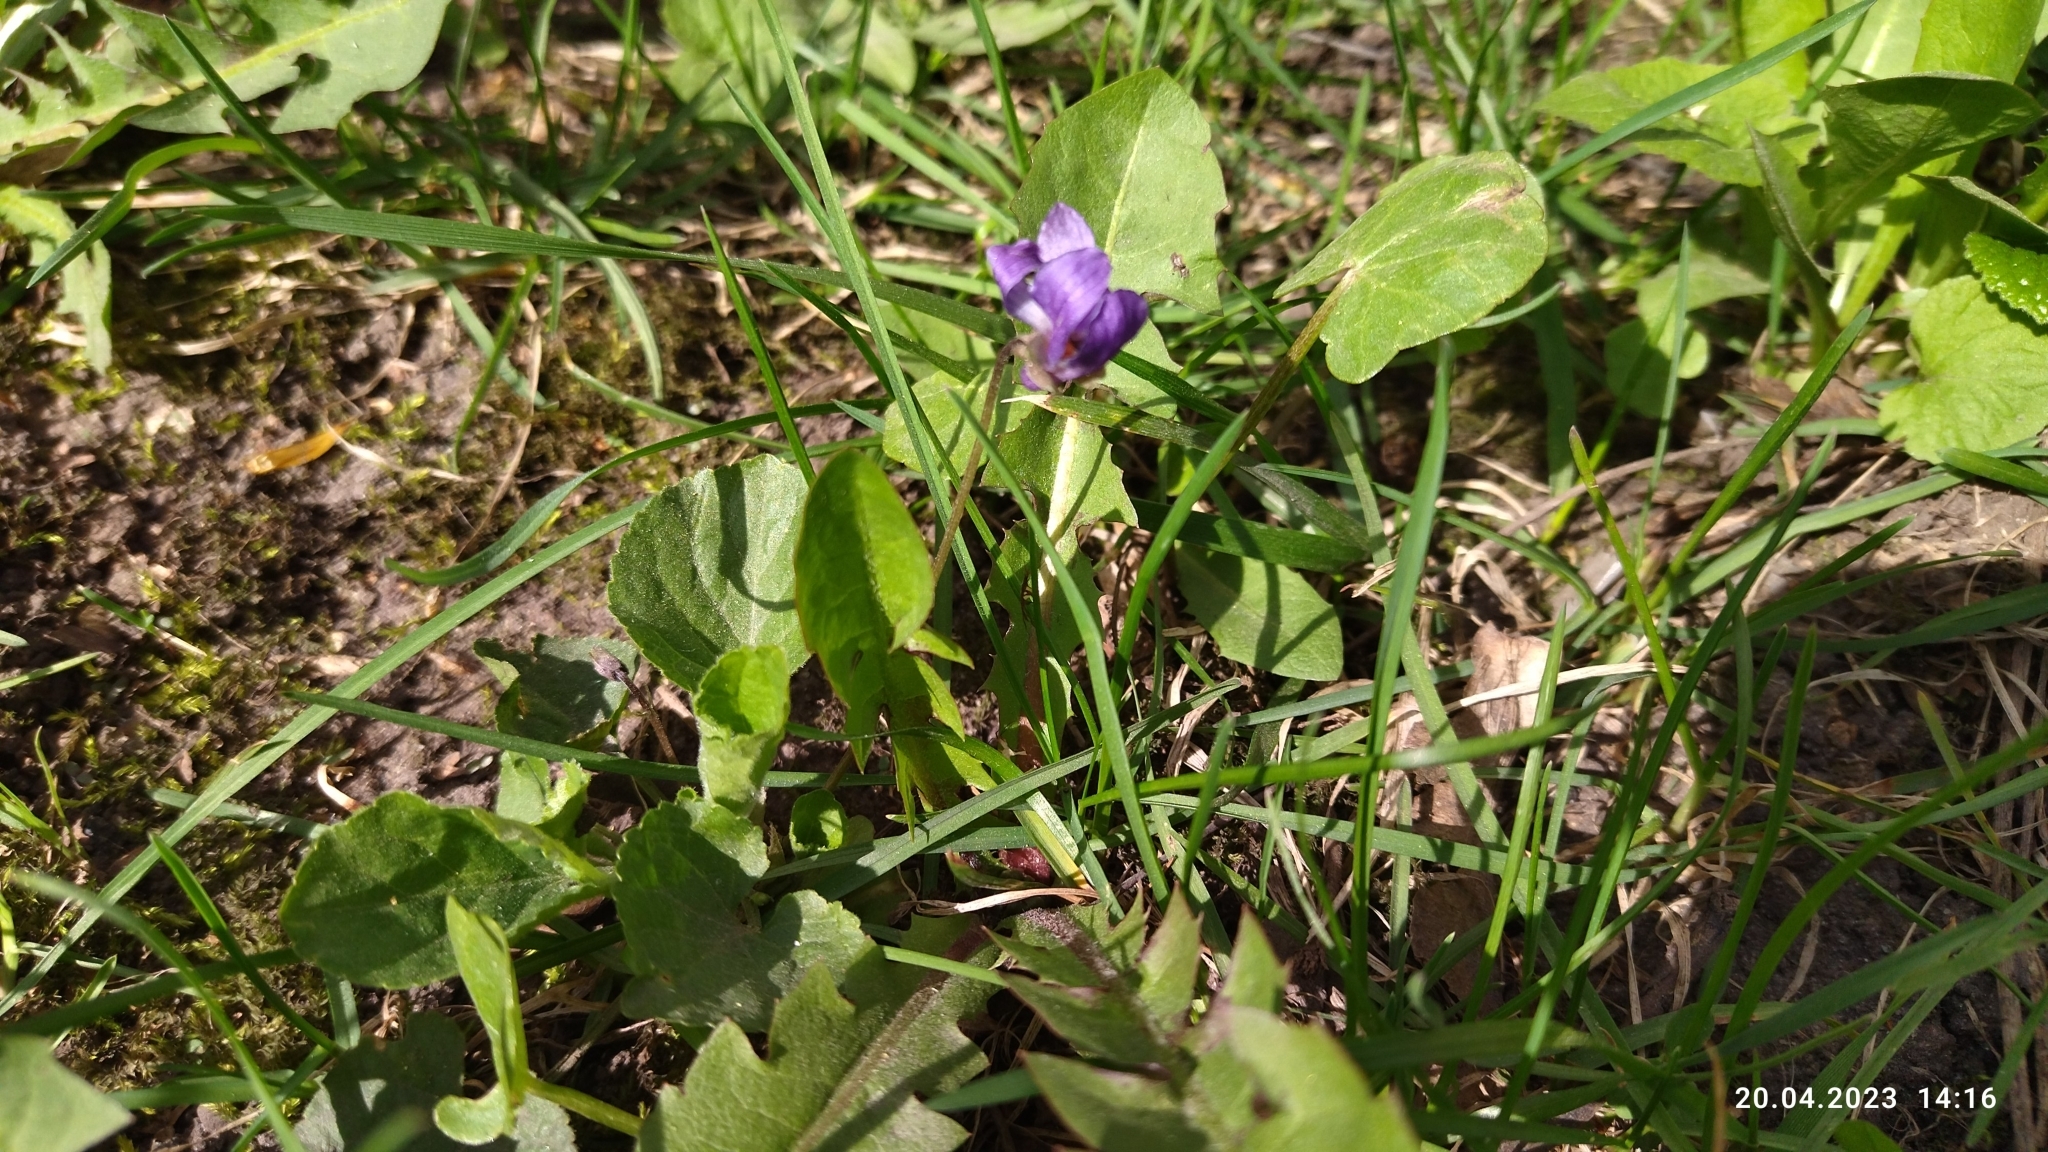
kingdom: Plantae
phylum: Tracheophyta
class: Magnoliopsida
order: Malpighiales
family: Violaceae
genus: Viola
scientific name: Viola odorata
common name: Sweet violet
